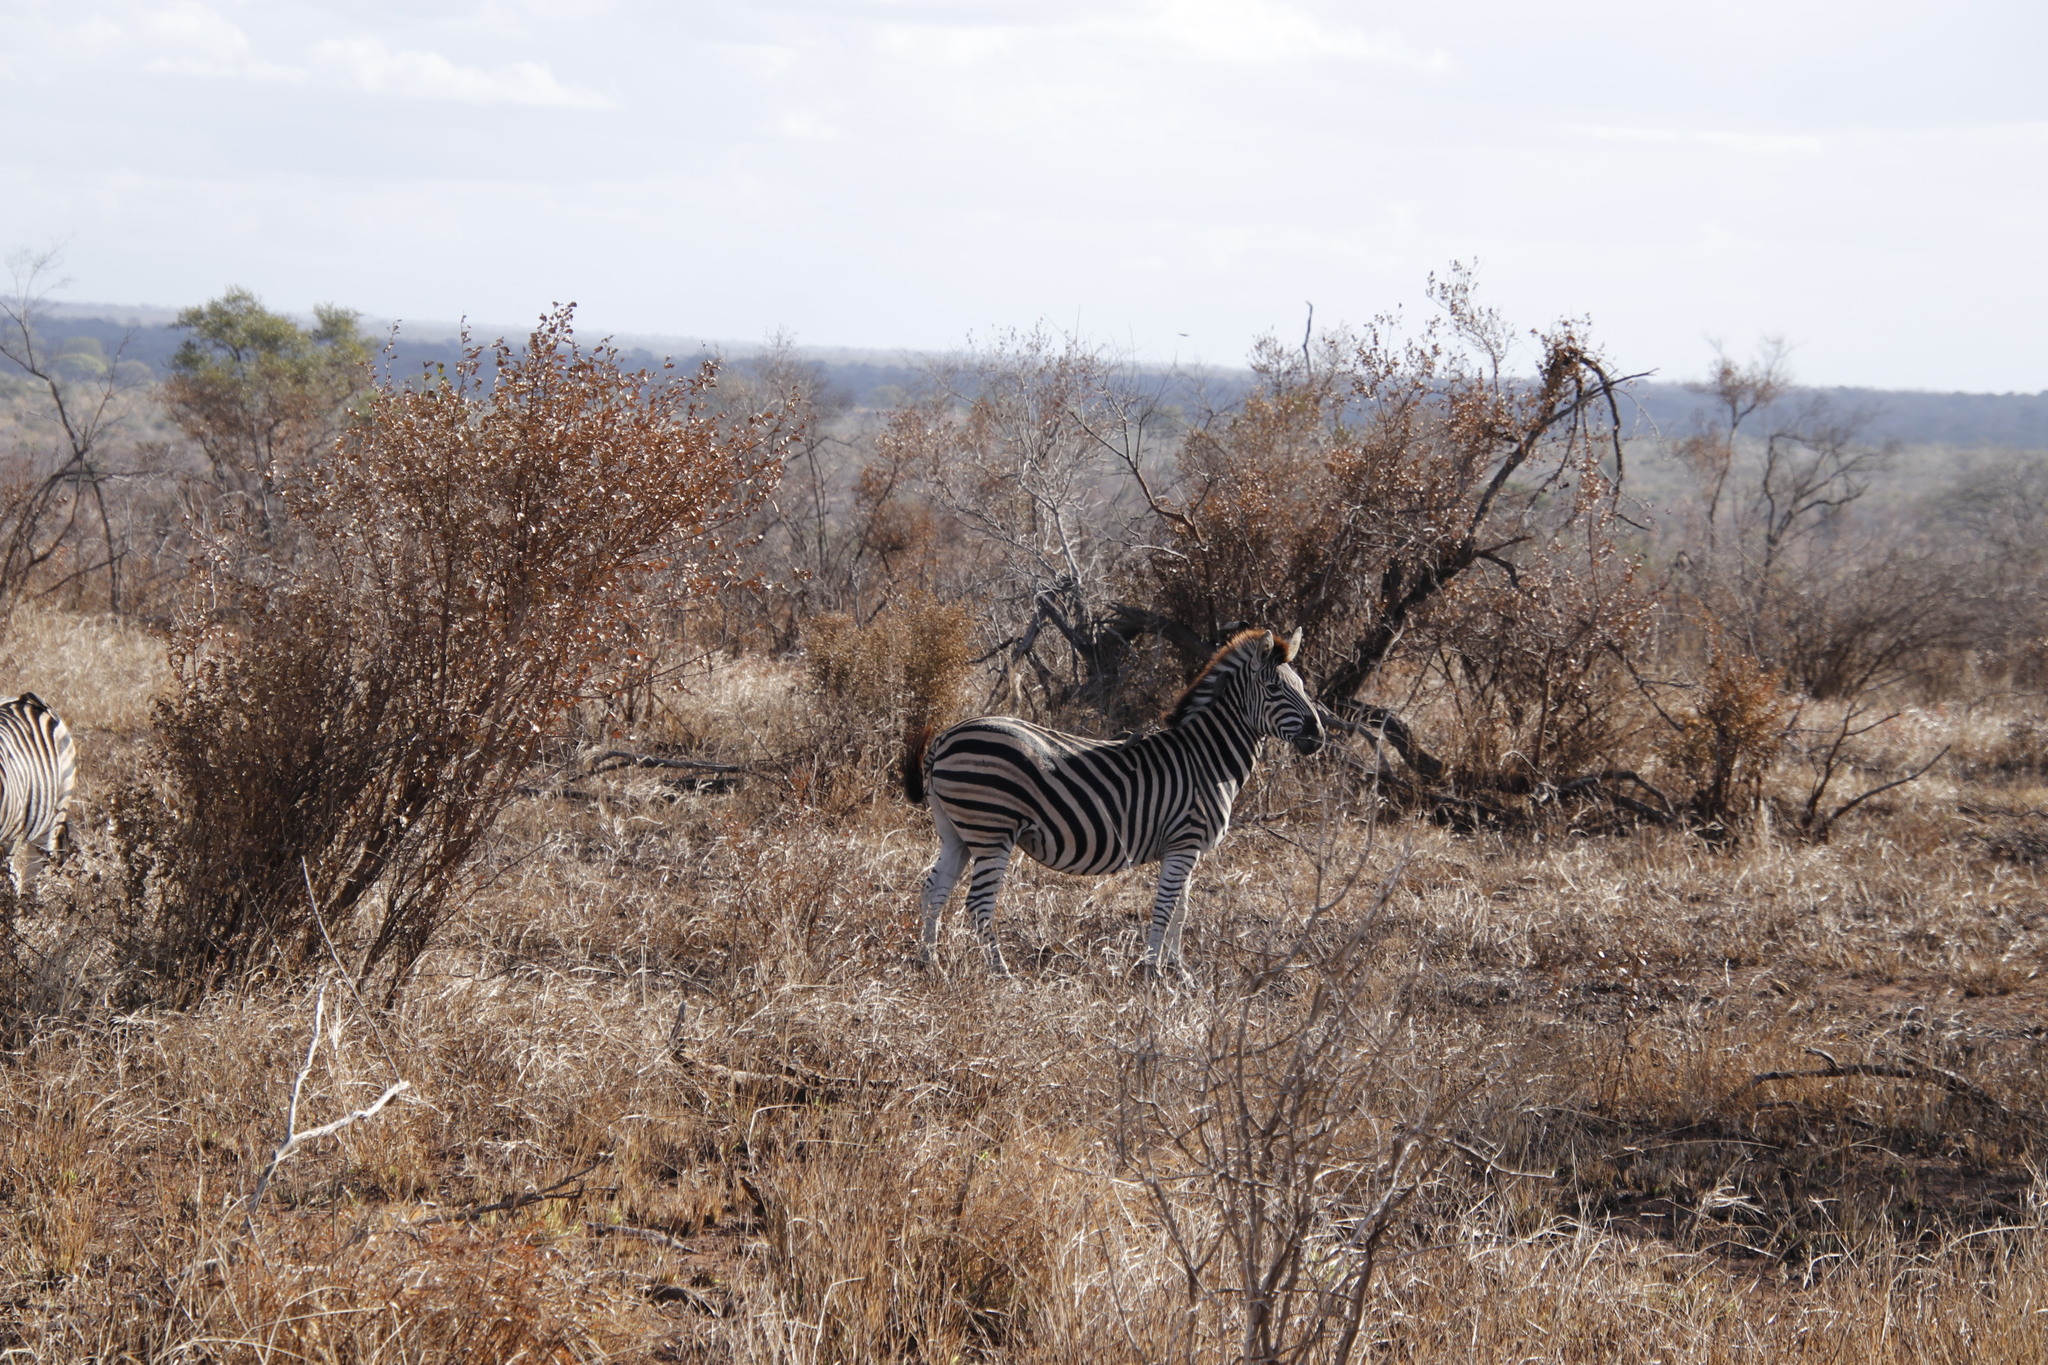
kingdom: Animalia
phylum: Chordata
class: Mammalia
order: Perissodactyla
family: Equidae
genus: Equus
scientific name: Equus quagga
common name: Plains zebra
